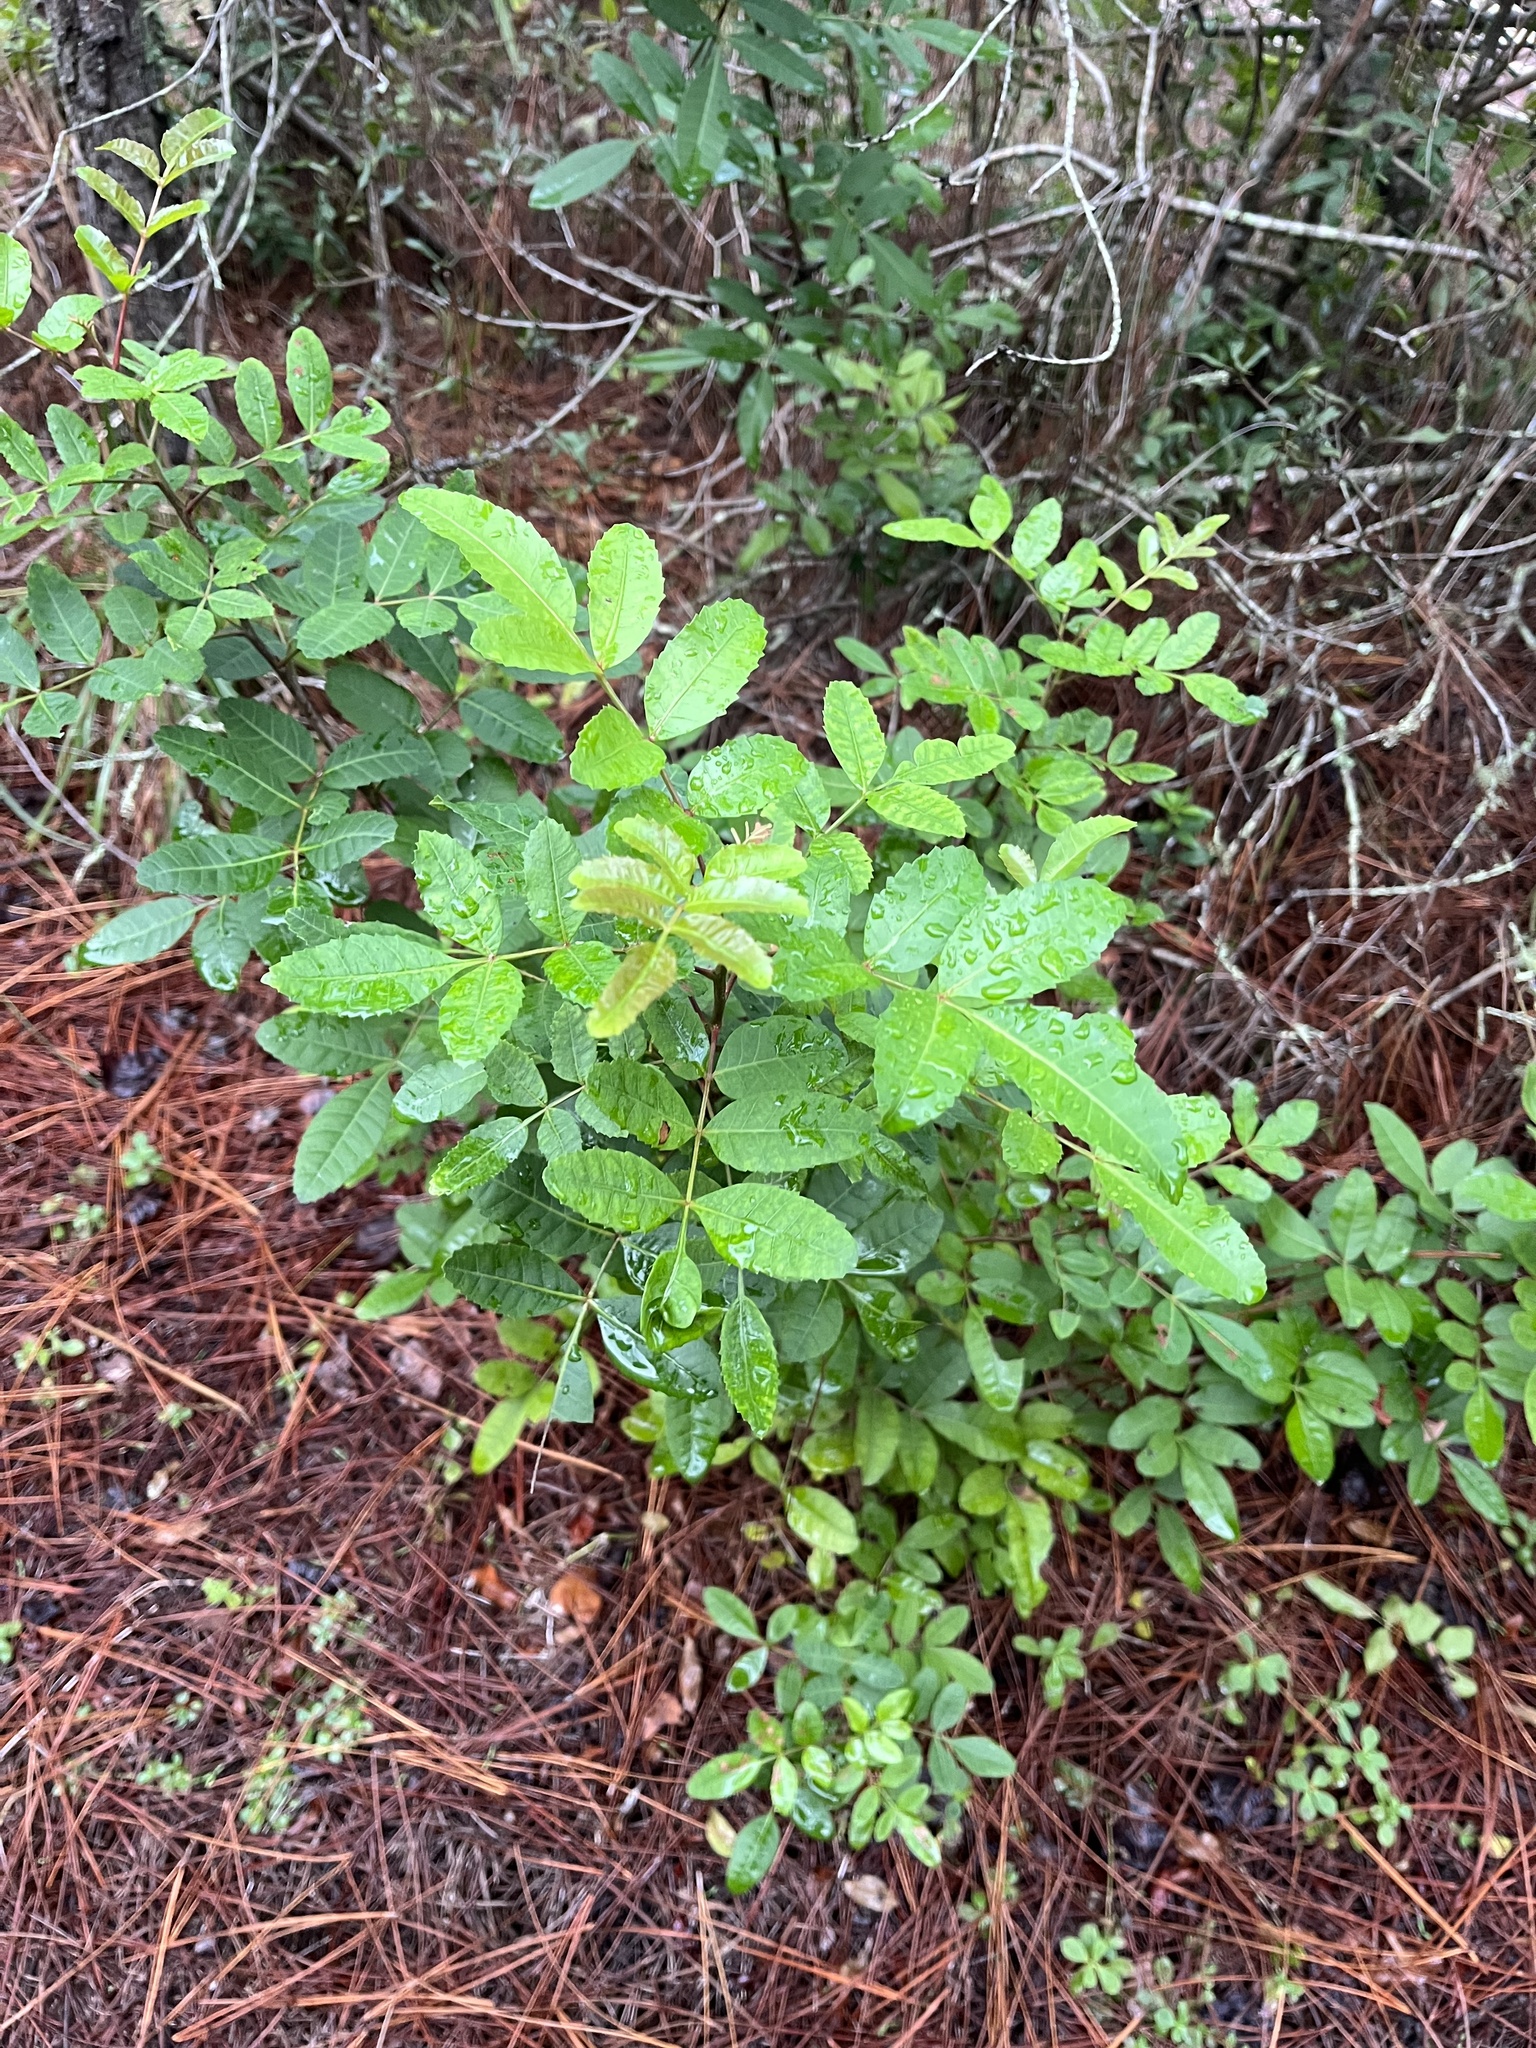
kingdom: Plantae
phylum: Tracheophyta
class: Magnoliopsida
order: Sapindales
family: Anacardiaceae
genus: Schinus
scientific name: Schinus terebinthifolia
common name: Brazilian peppertree
